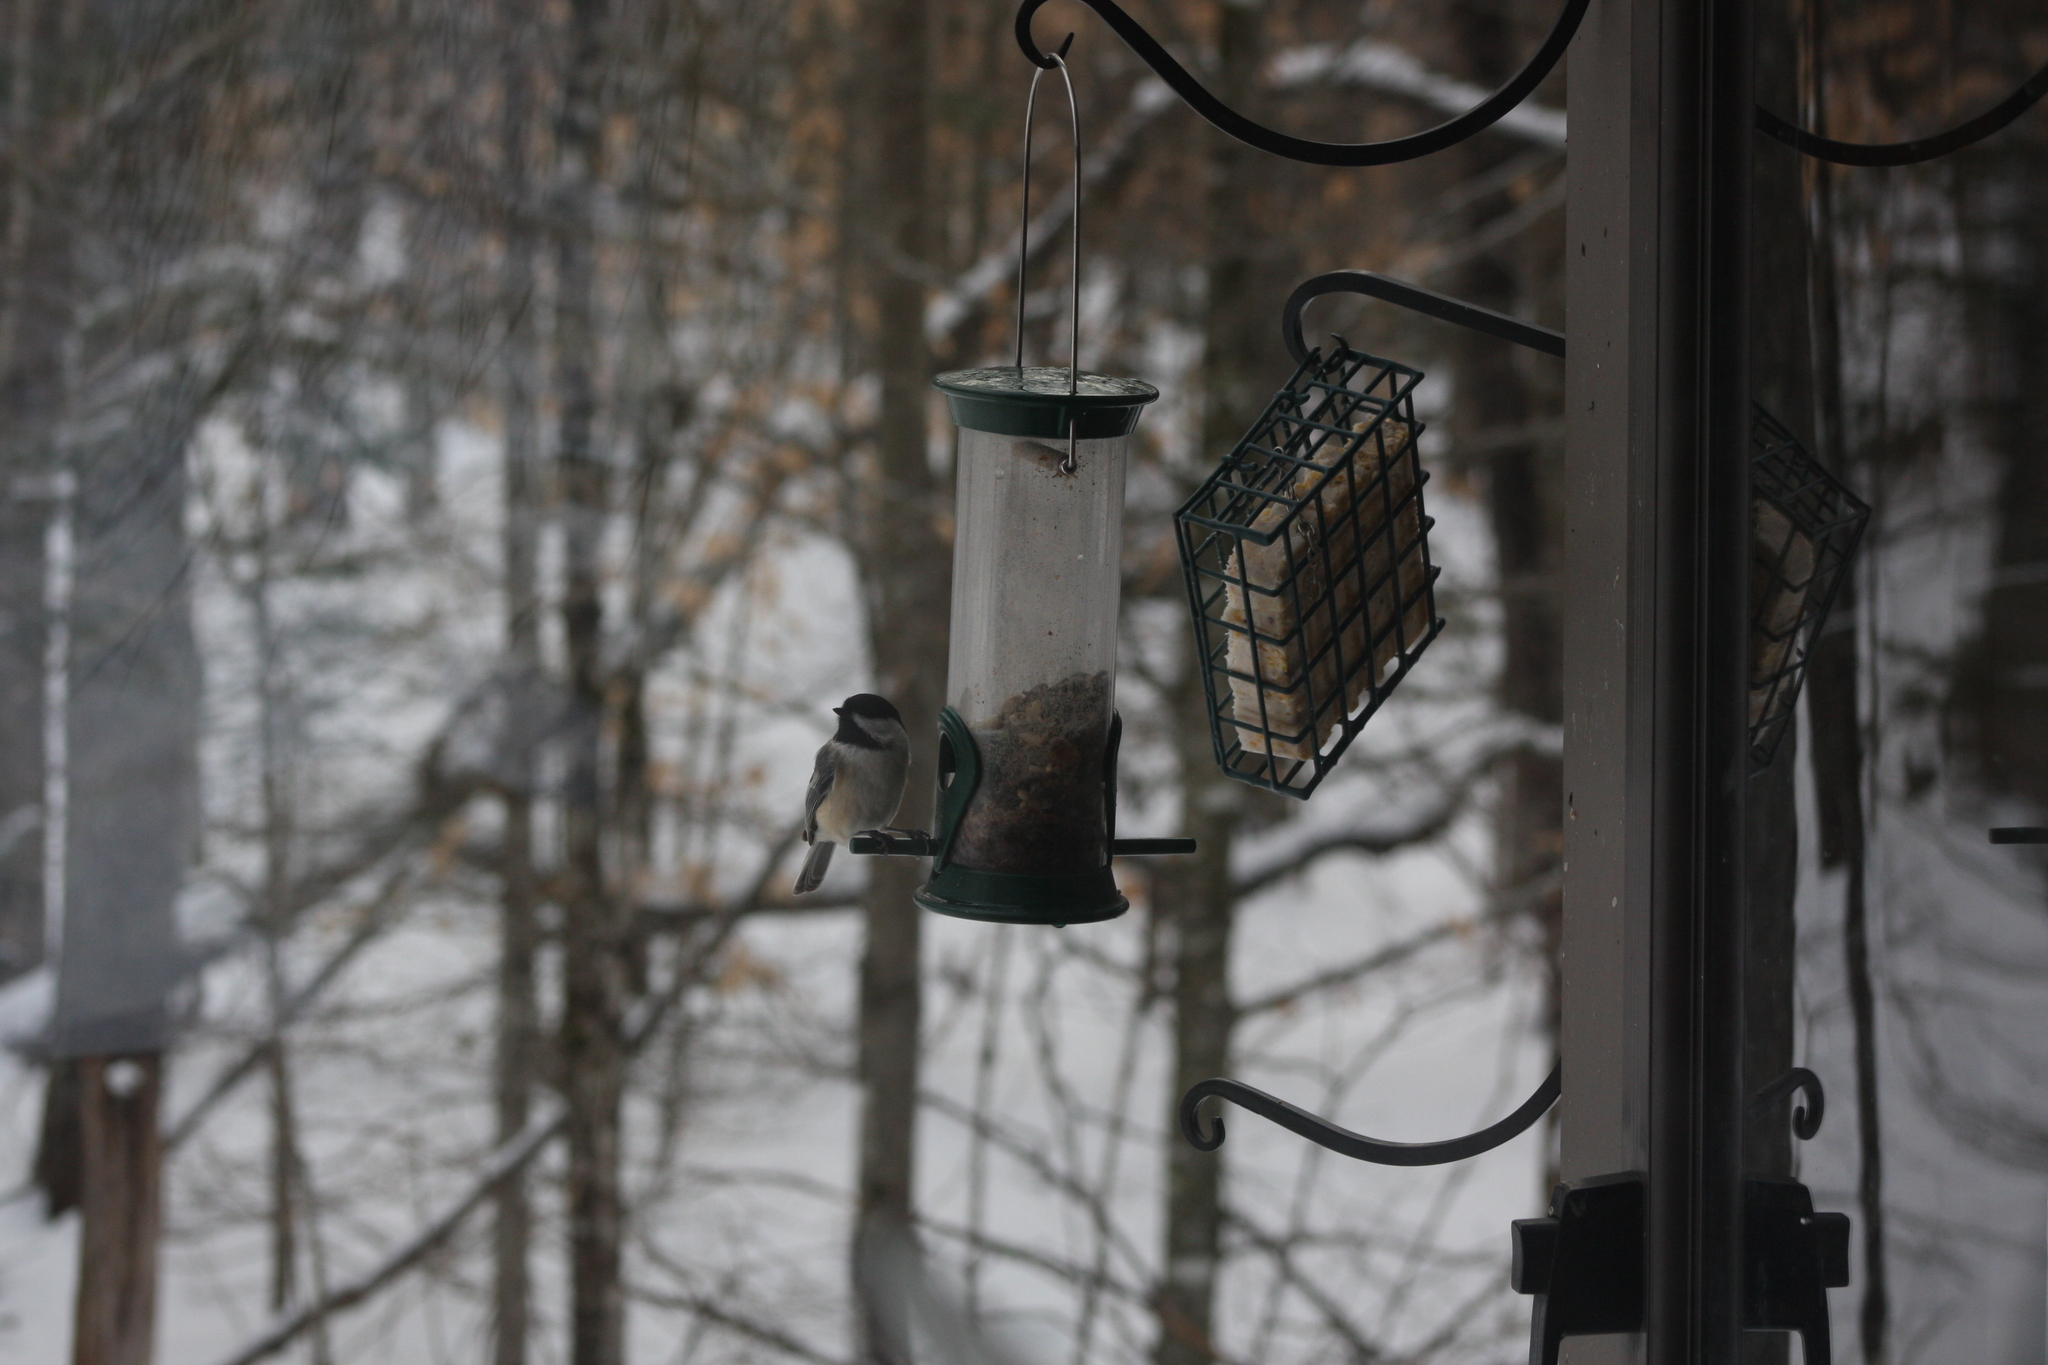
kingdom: Animalia
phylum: Chordata
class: Aves
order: Passeriformes
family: Paridae
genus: Poecile
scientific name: Poecile atricapillus
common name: Black-capped chickadee
